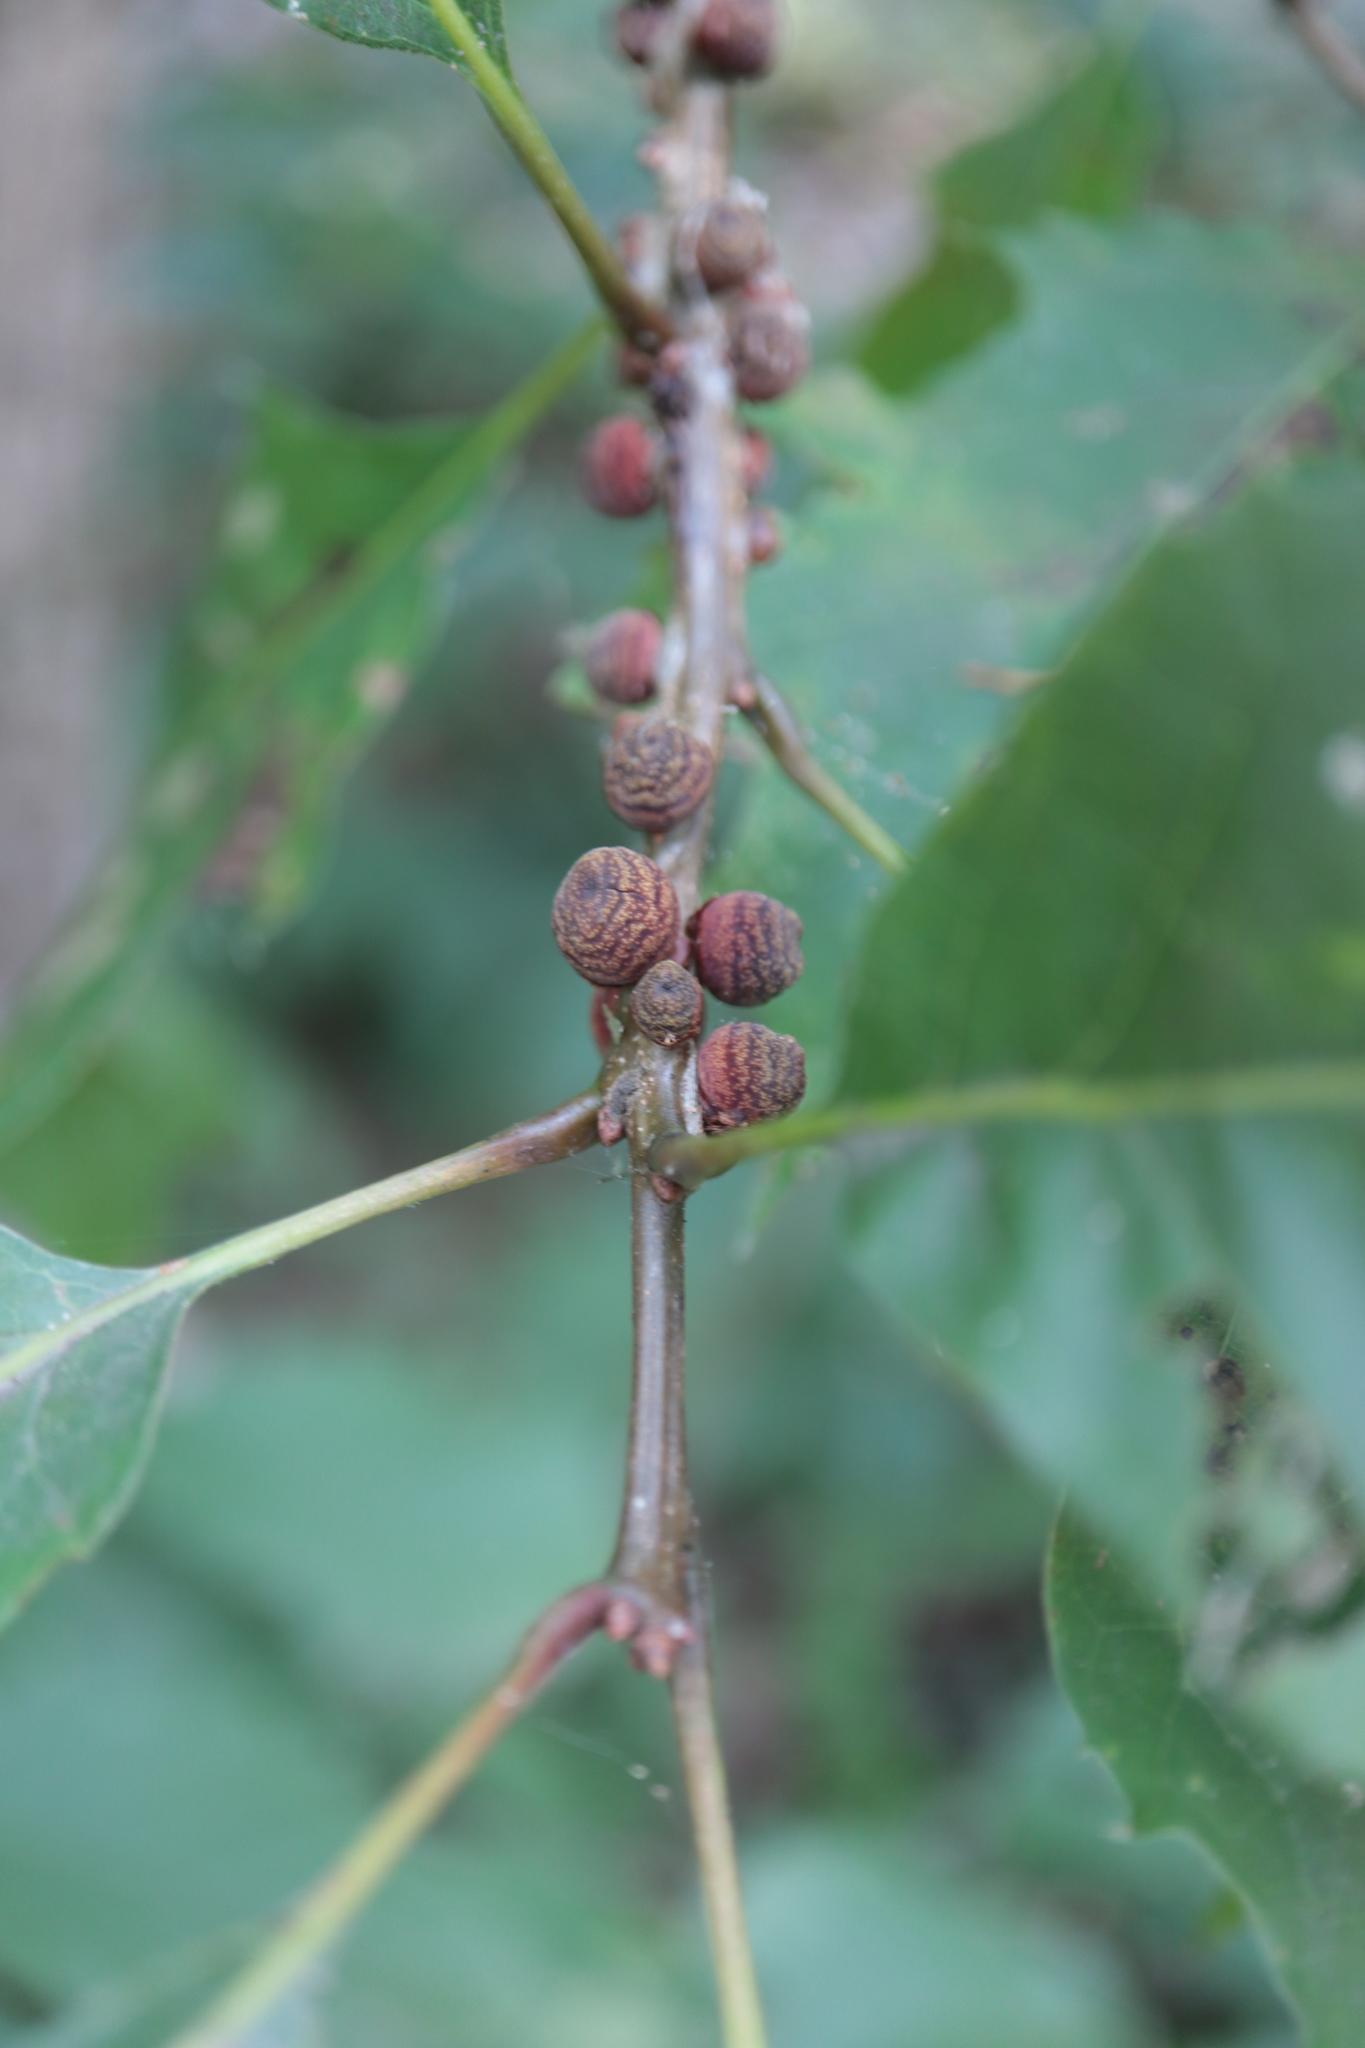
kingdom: Animalia
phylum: Arthropoda
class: Insecta
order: Hymenoptera
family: Cynipidae
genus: Kokkocynips
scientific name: Kokkocynips imbricariae
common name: Banded bullet gall wasp
